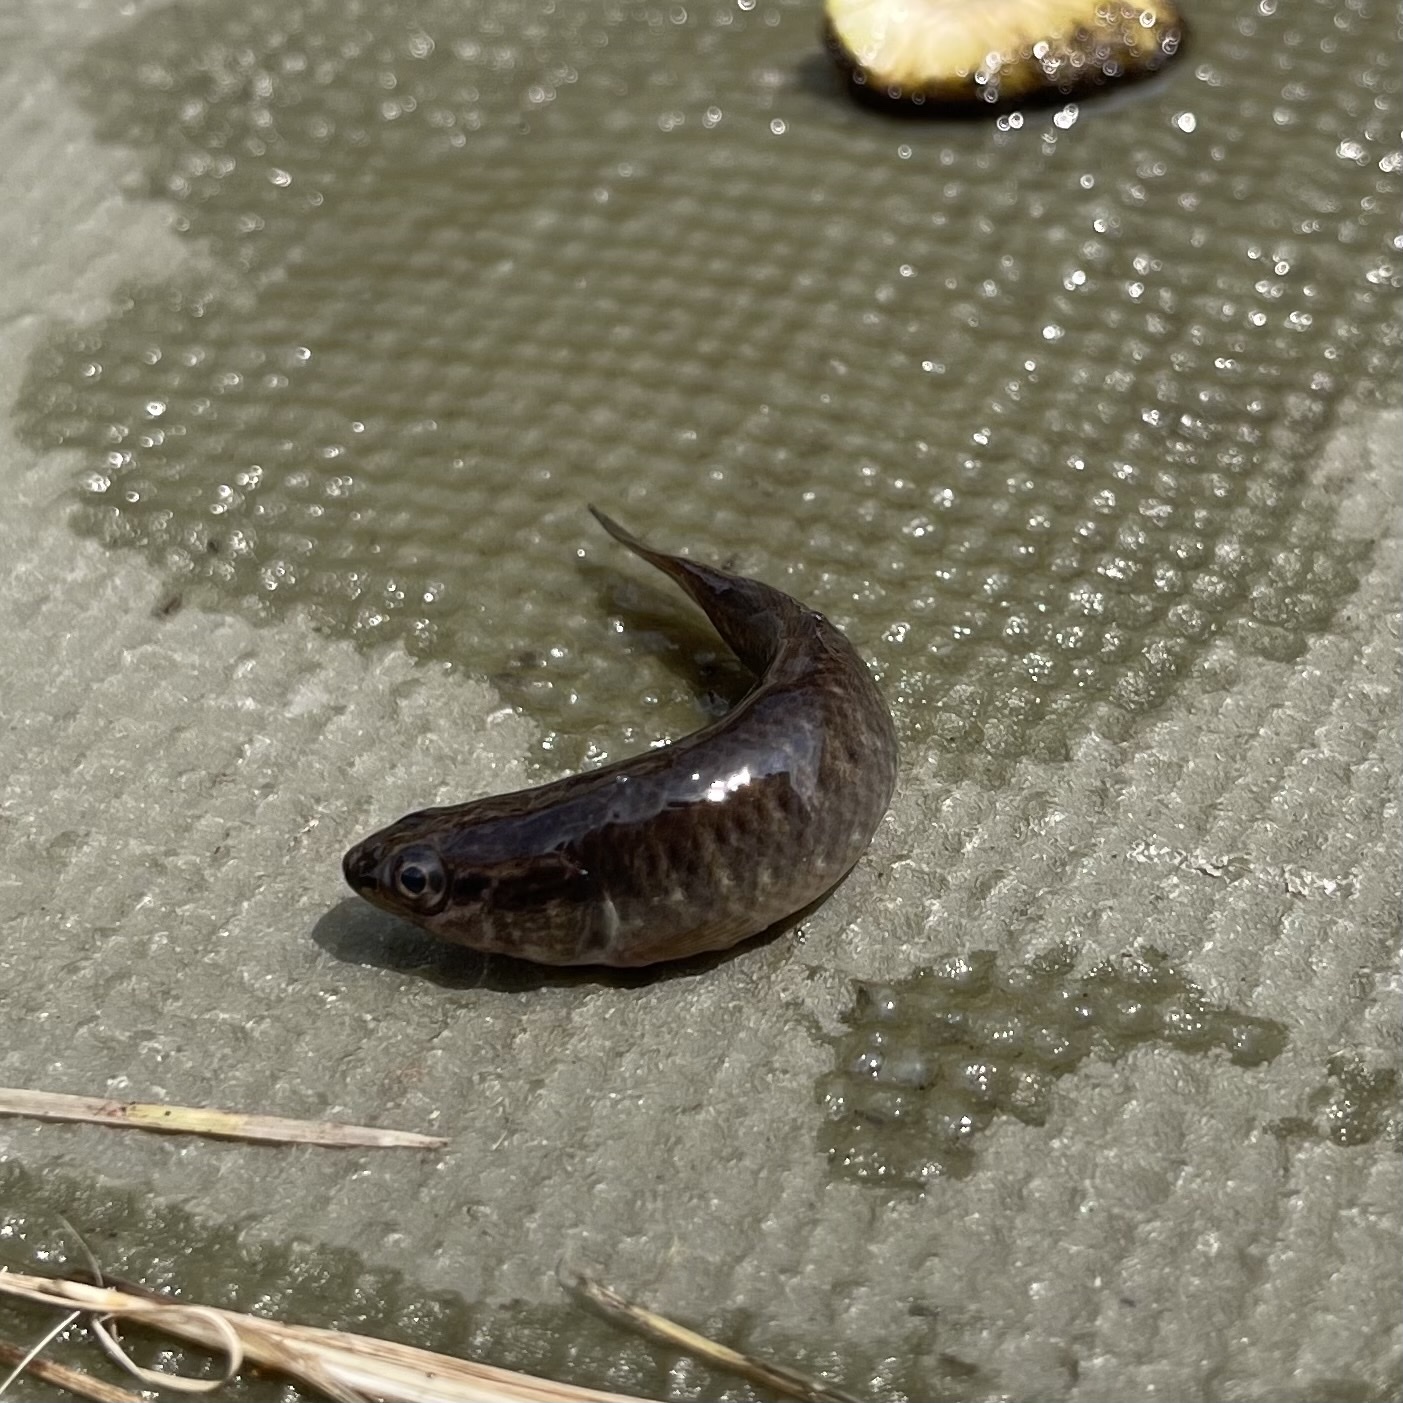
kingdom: Animalia
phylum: Chordata
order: Esociformes
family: Umbridae
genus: Umbra
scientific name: Umbra limi
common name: Central mudminnow
